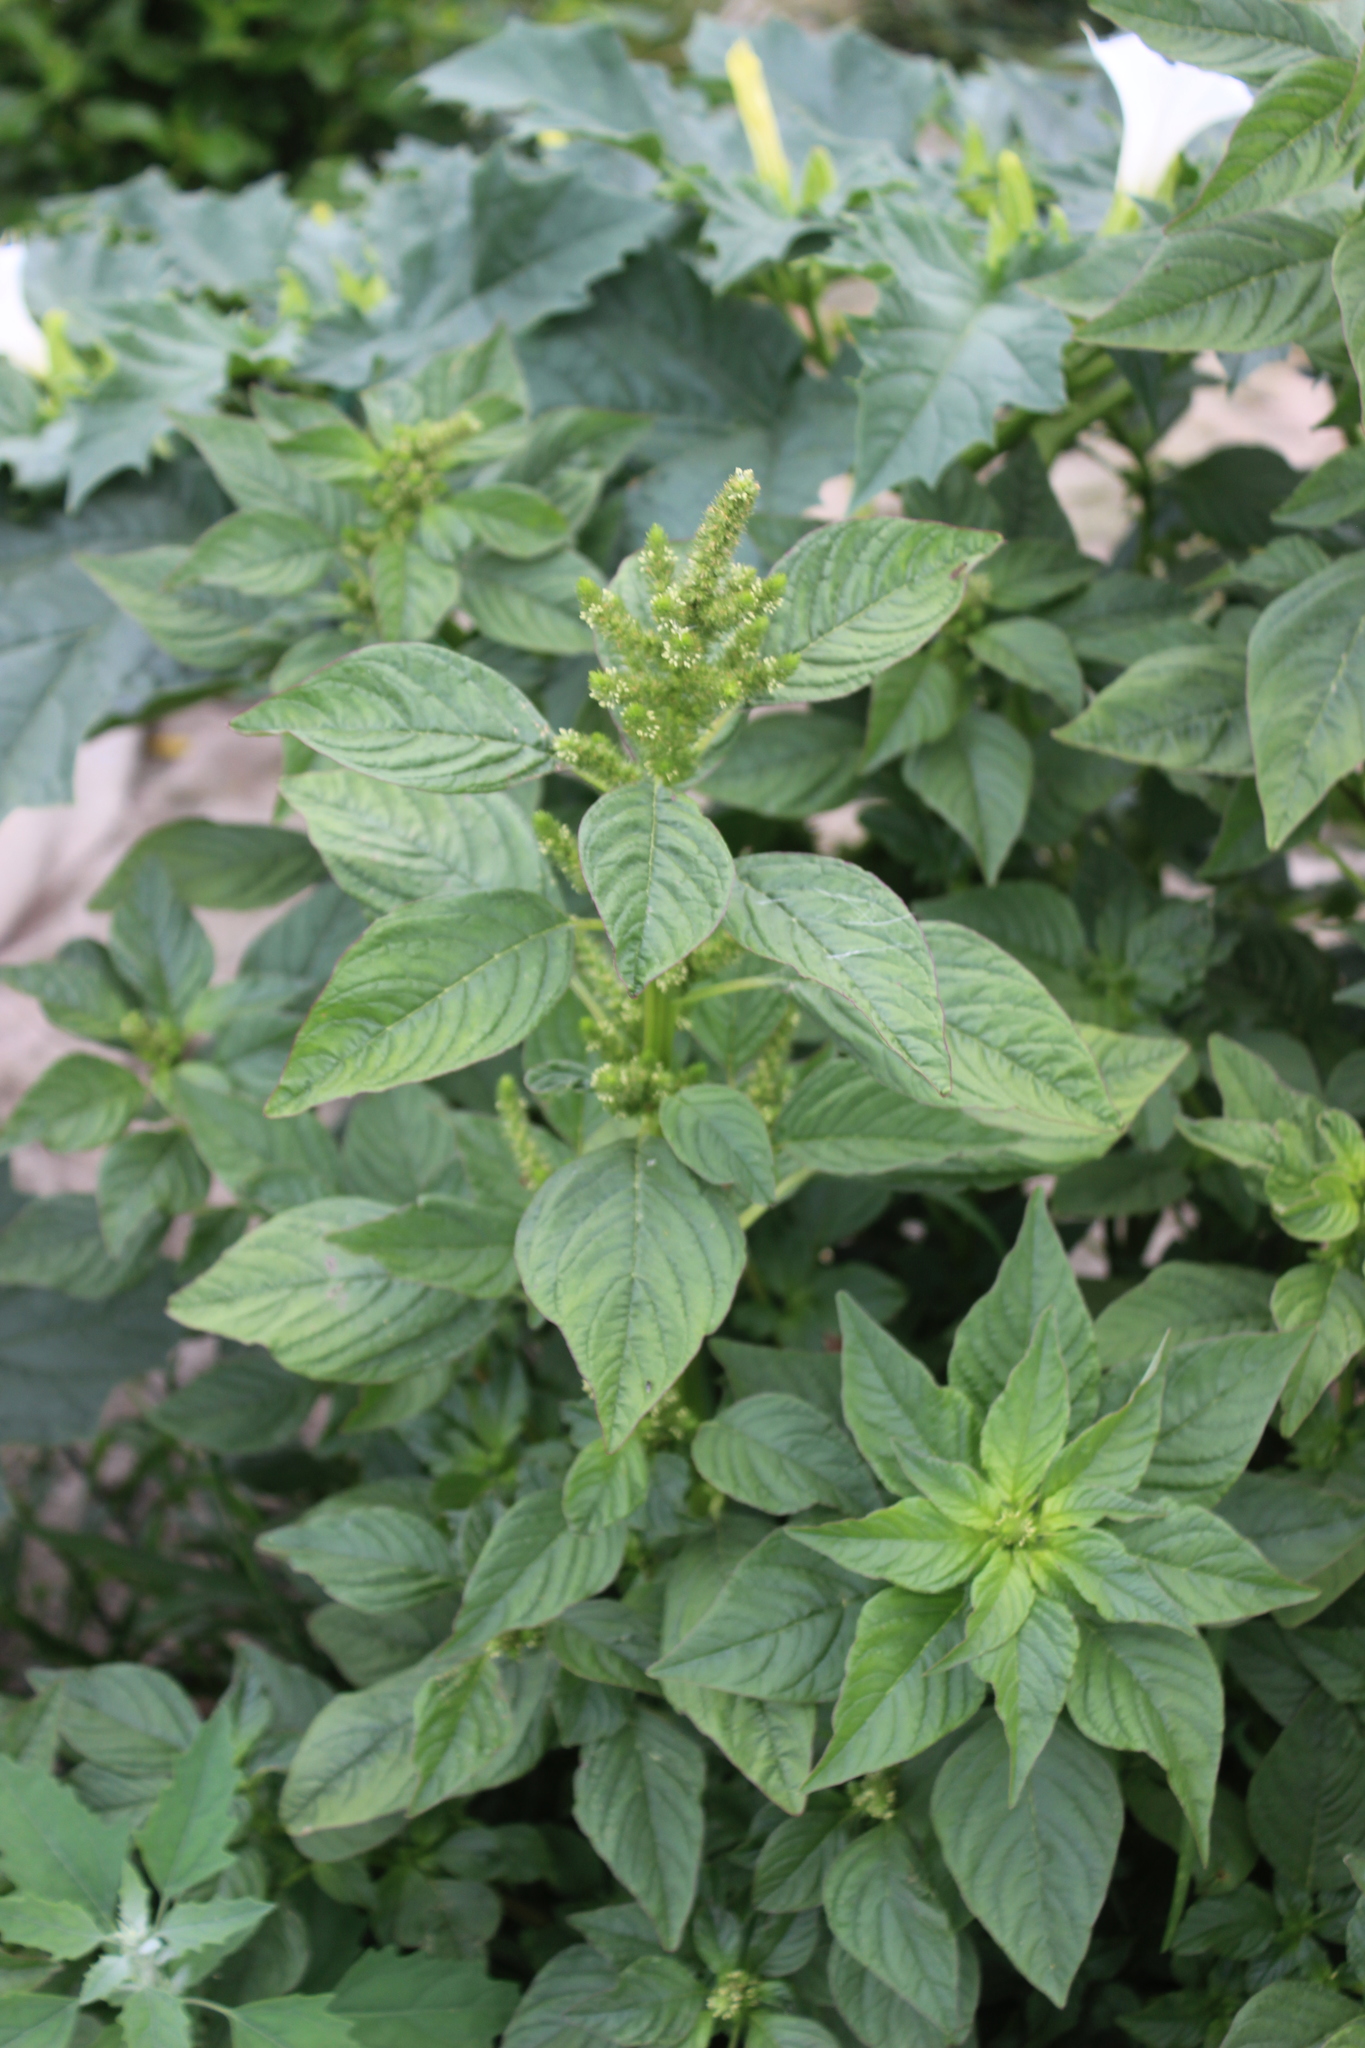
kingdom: Plantae
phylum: Tracheophyta
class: Magnoliopsida
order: Caryophyllales
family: Amaranthaceae
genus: Amaranthus
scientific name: Amaranthus powellii
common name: Powell's amaranth
